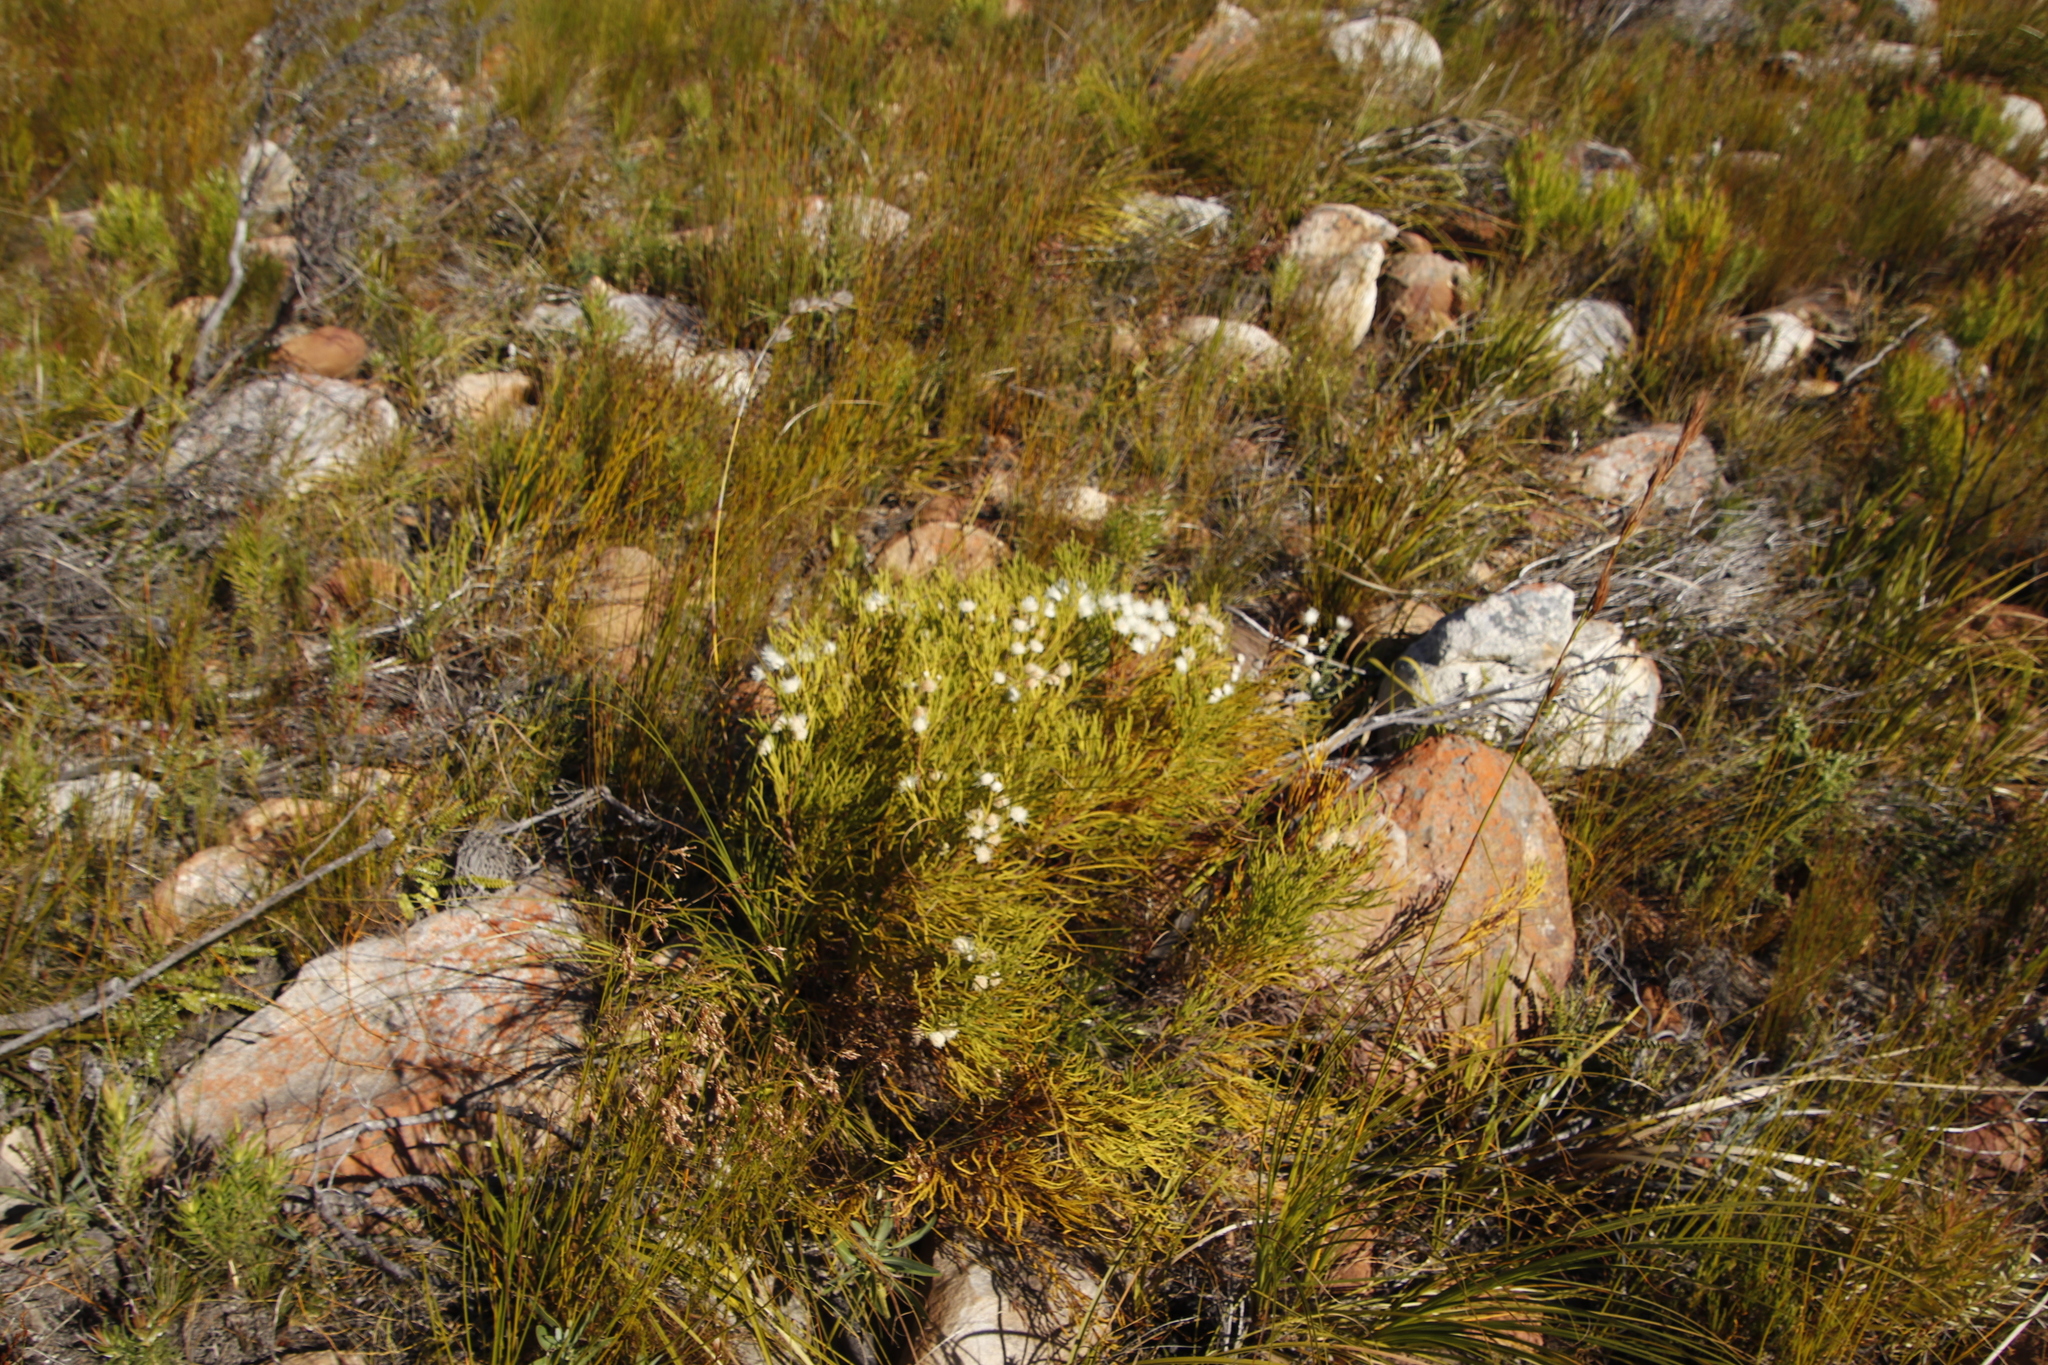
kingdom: Plantae
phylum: Tracheophyta
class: Magnoliopsida
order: Bruniales
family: Bruniaceae
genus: Brunia
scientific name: Brunia noduliflora
